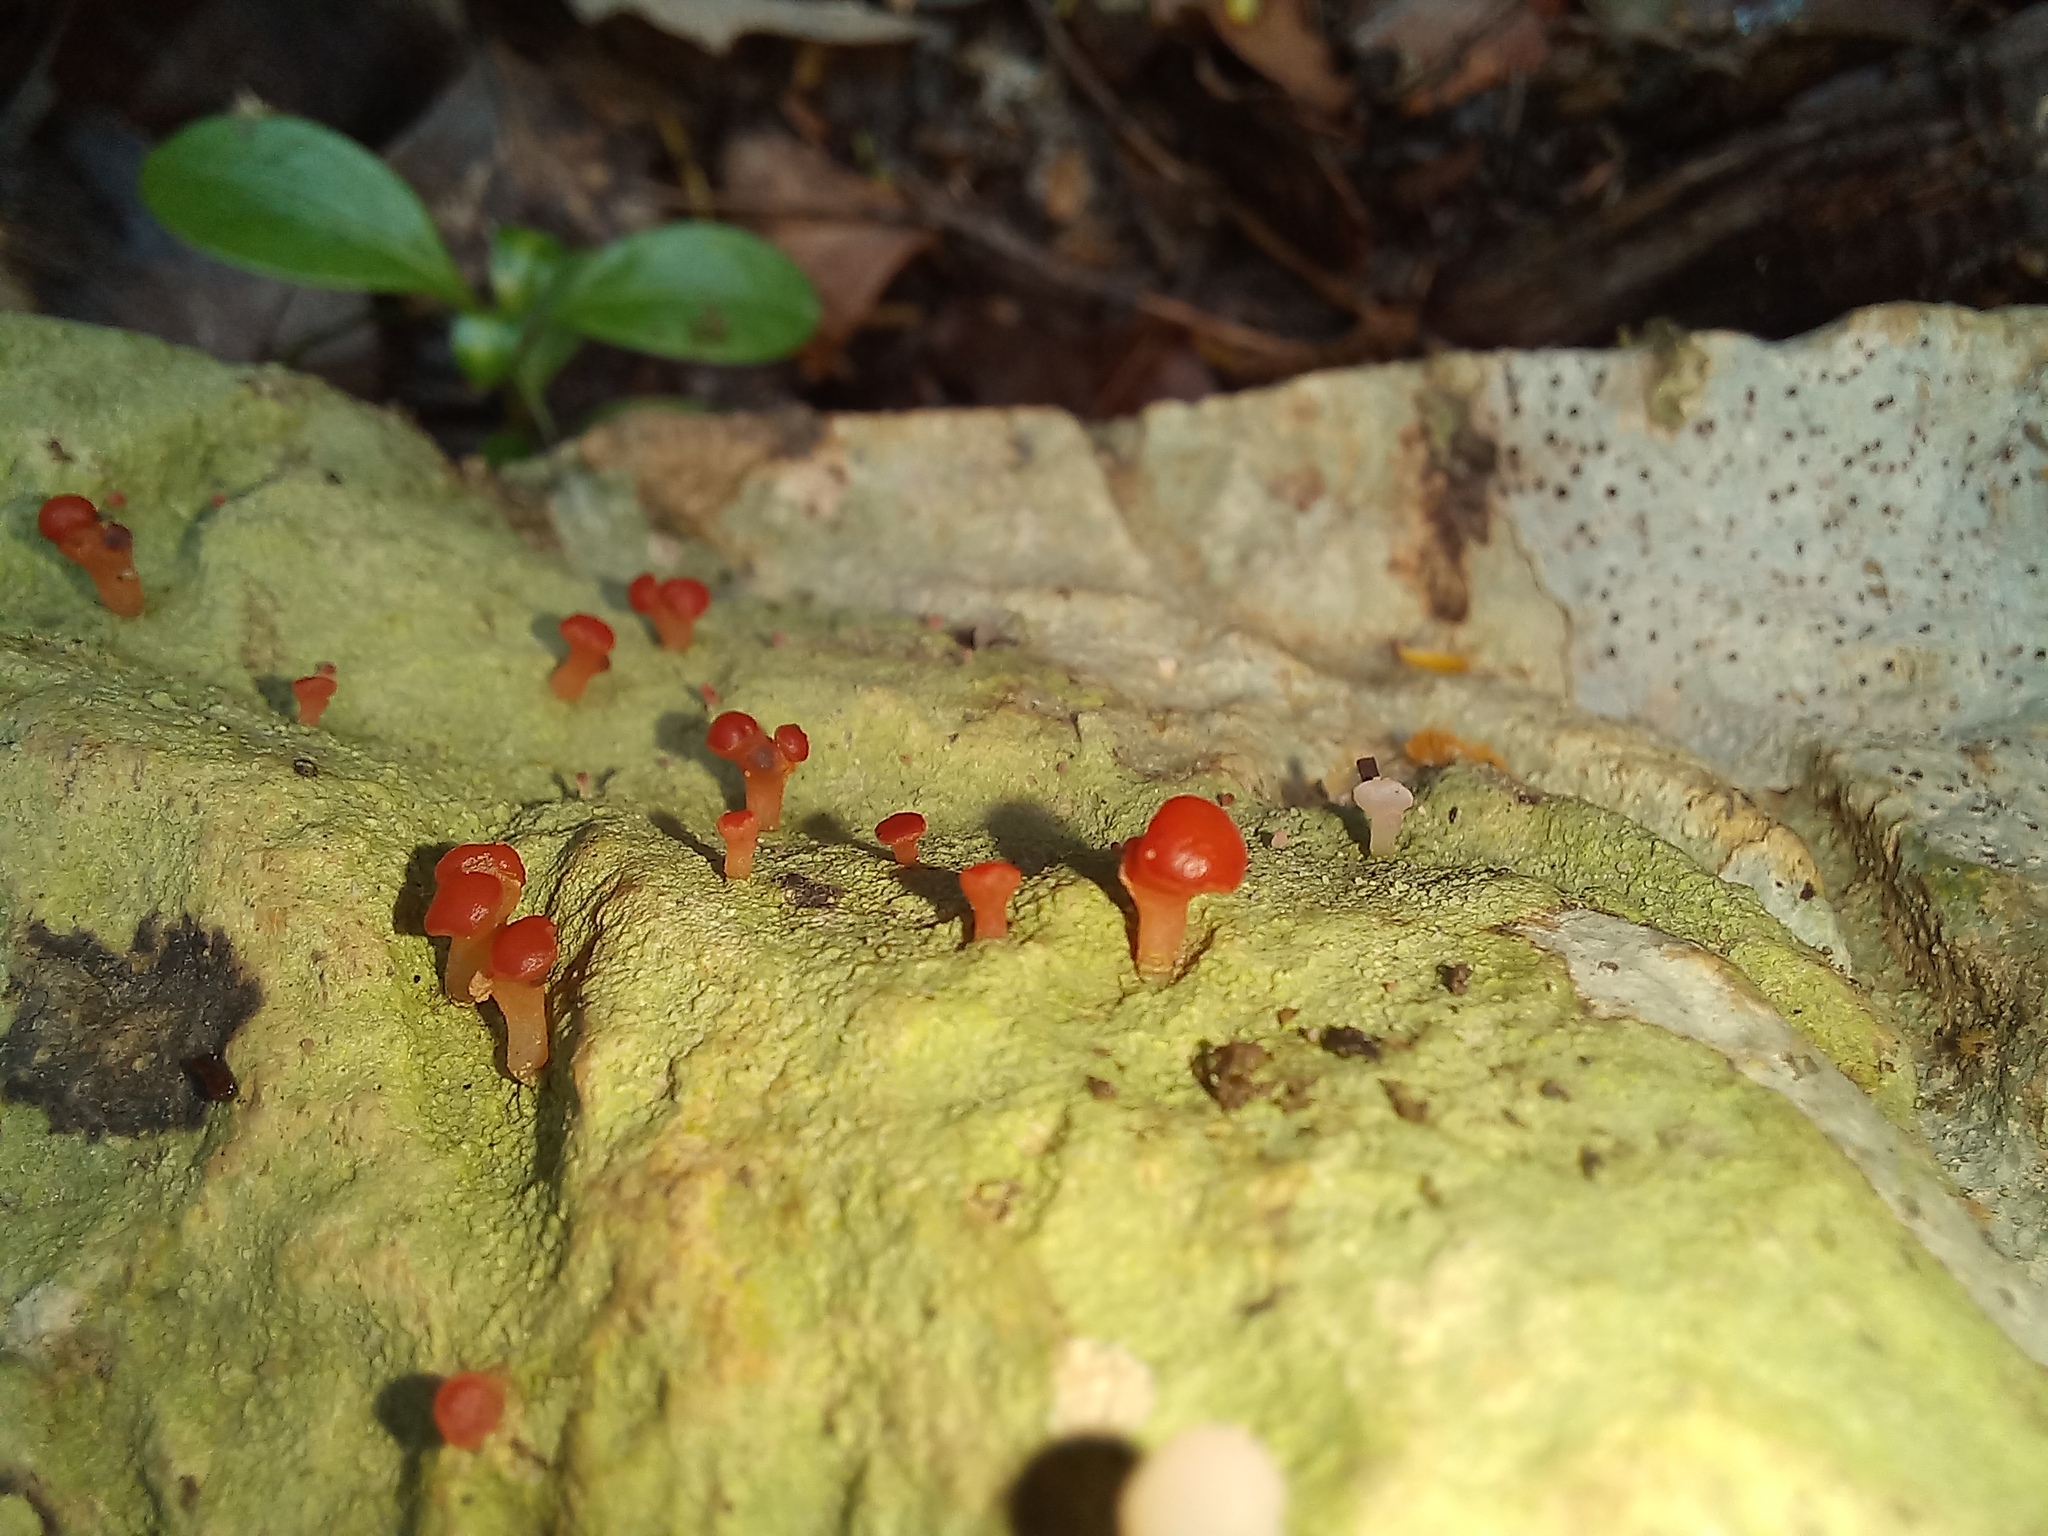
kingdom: Fungi
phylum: Ascomycota
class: Lecanoromycetes
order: Baeomycetales
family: Baeomycetaceae
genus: Baeomyces
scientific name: Baeomyces heteromorphus
